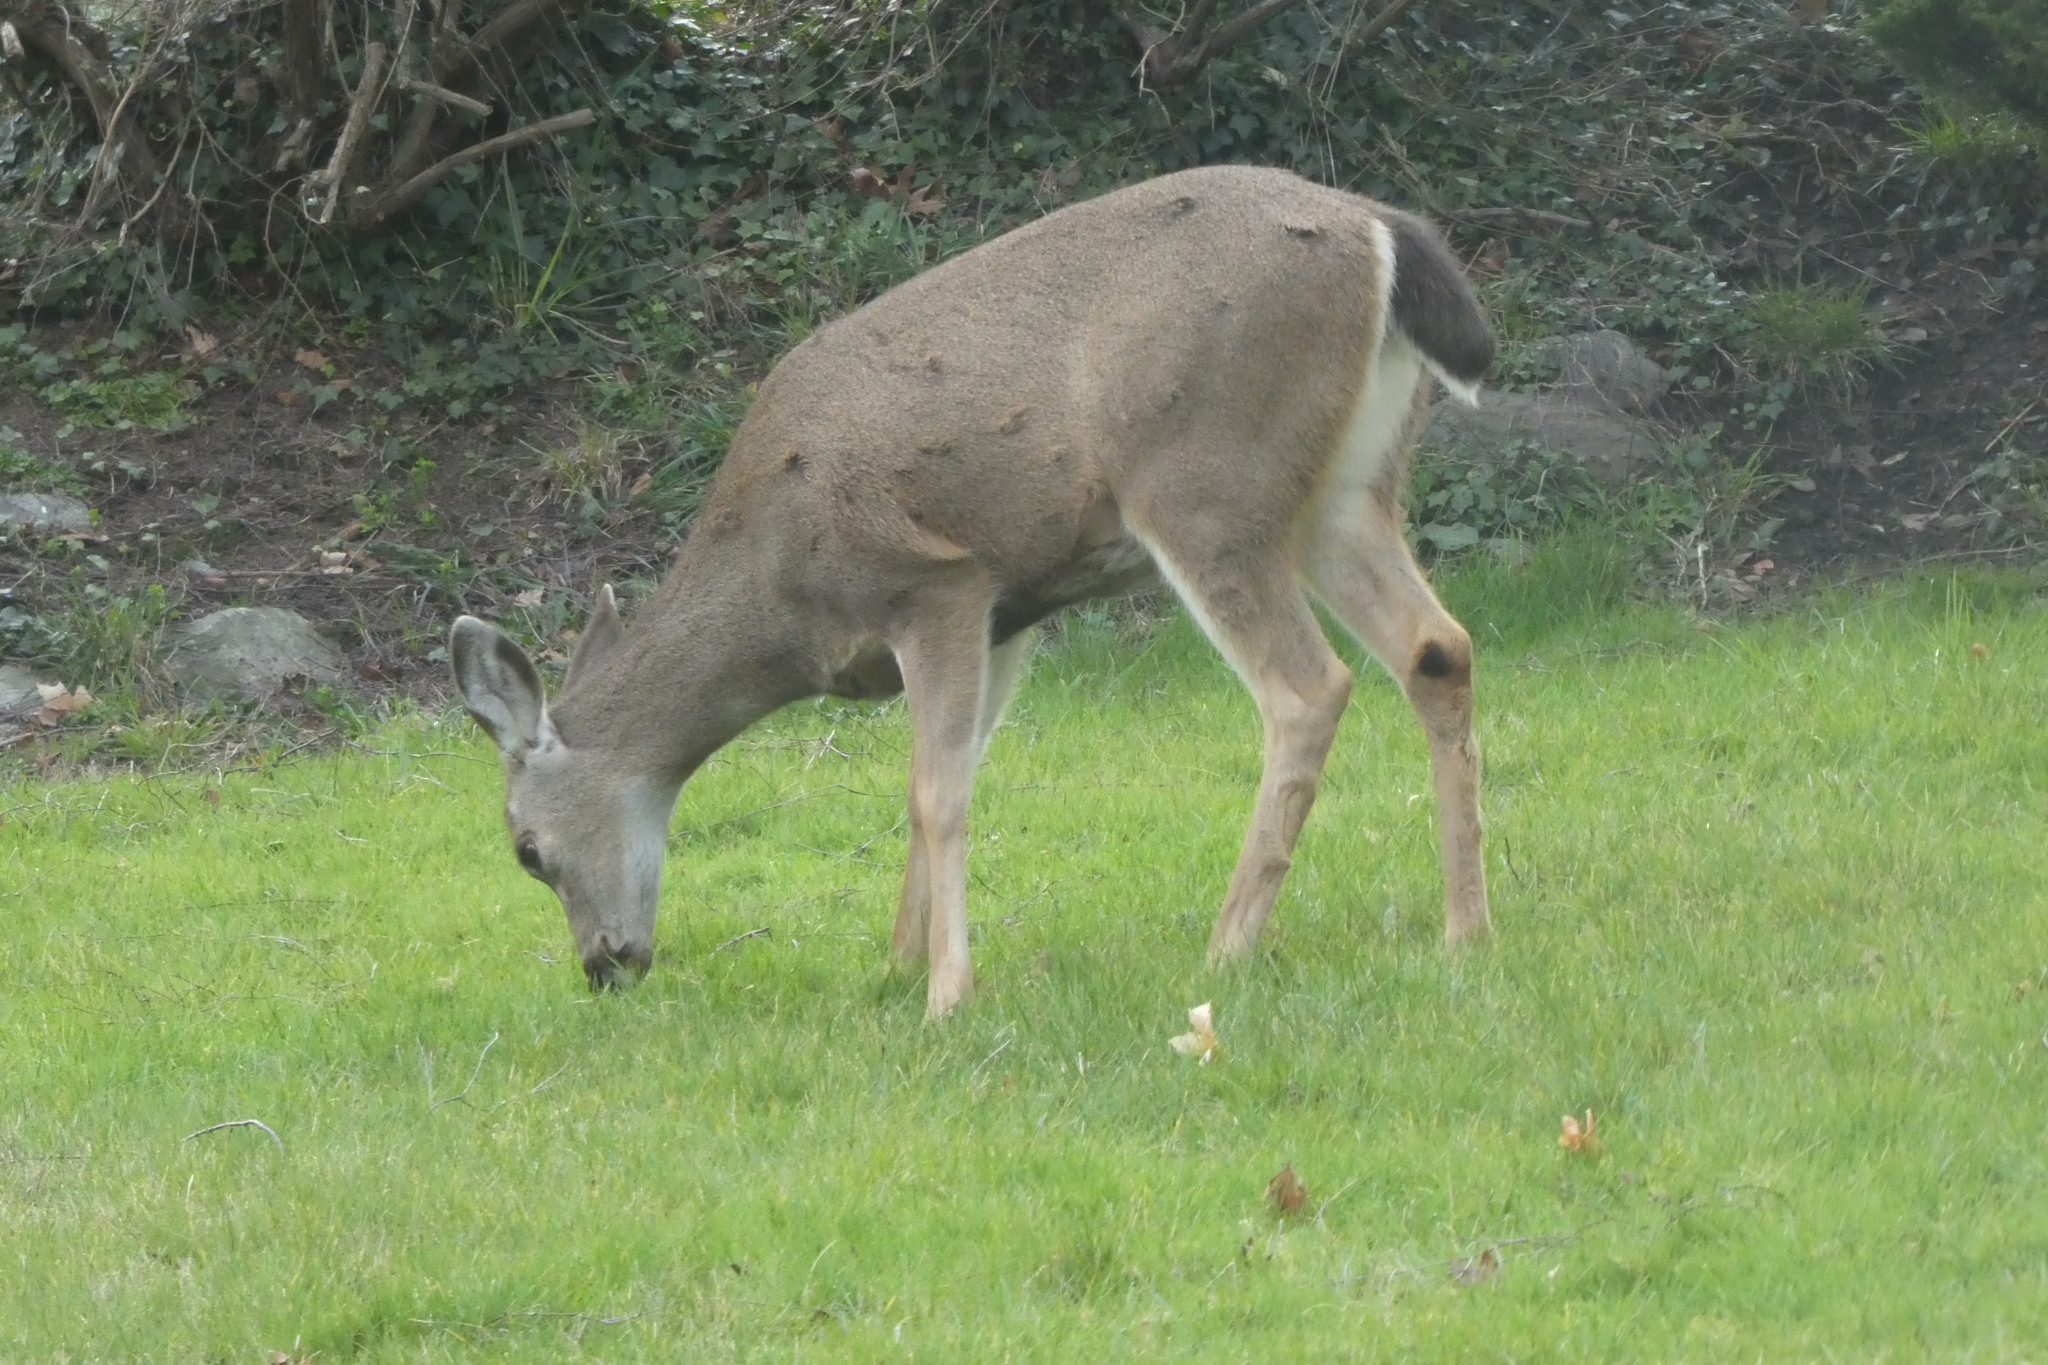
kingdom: Animalia
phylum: Chordata
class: Mammalia
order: Artiodactyla
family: Cervidae
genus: Odocoileus
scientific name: Odocoileus hemionus
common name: Mule deer
